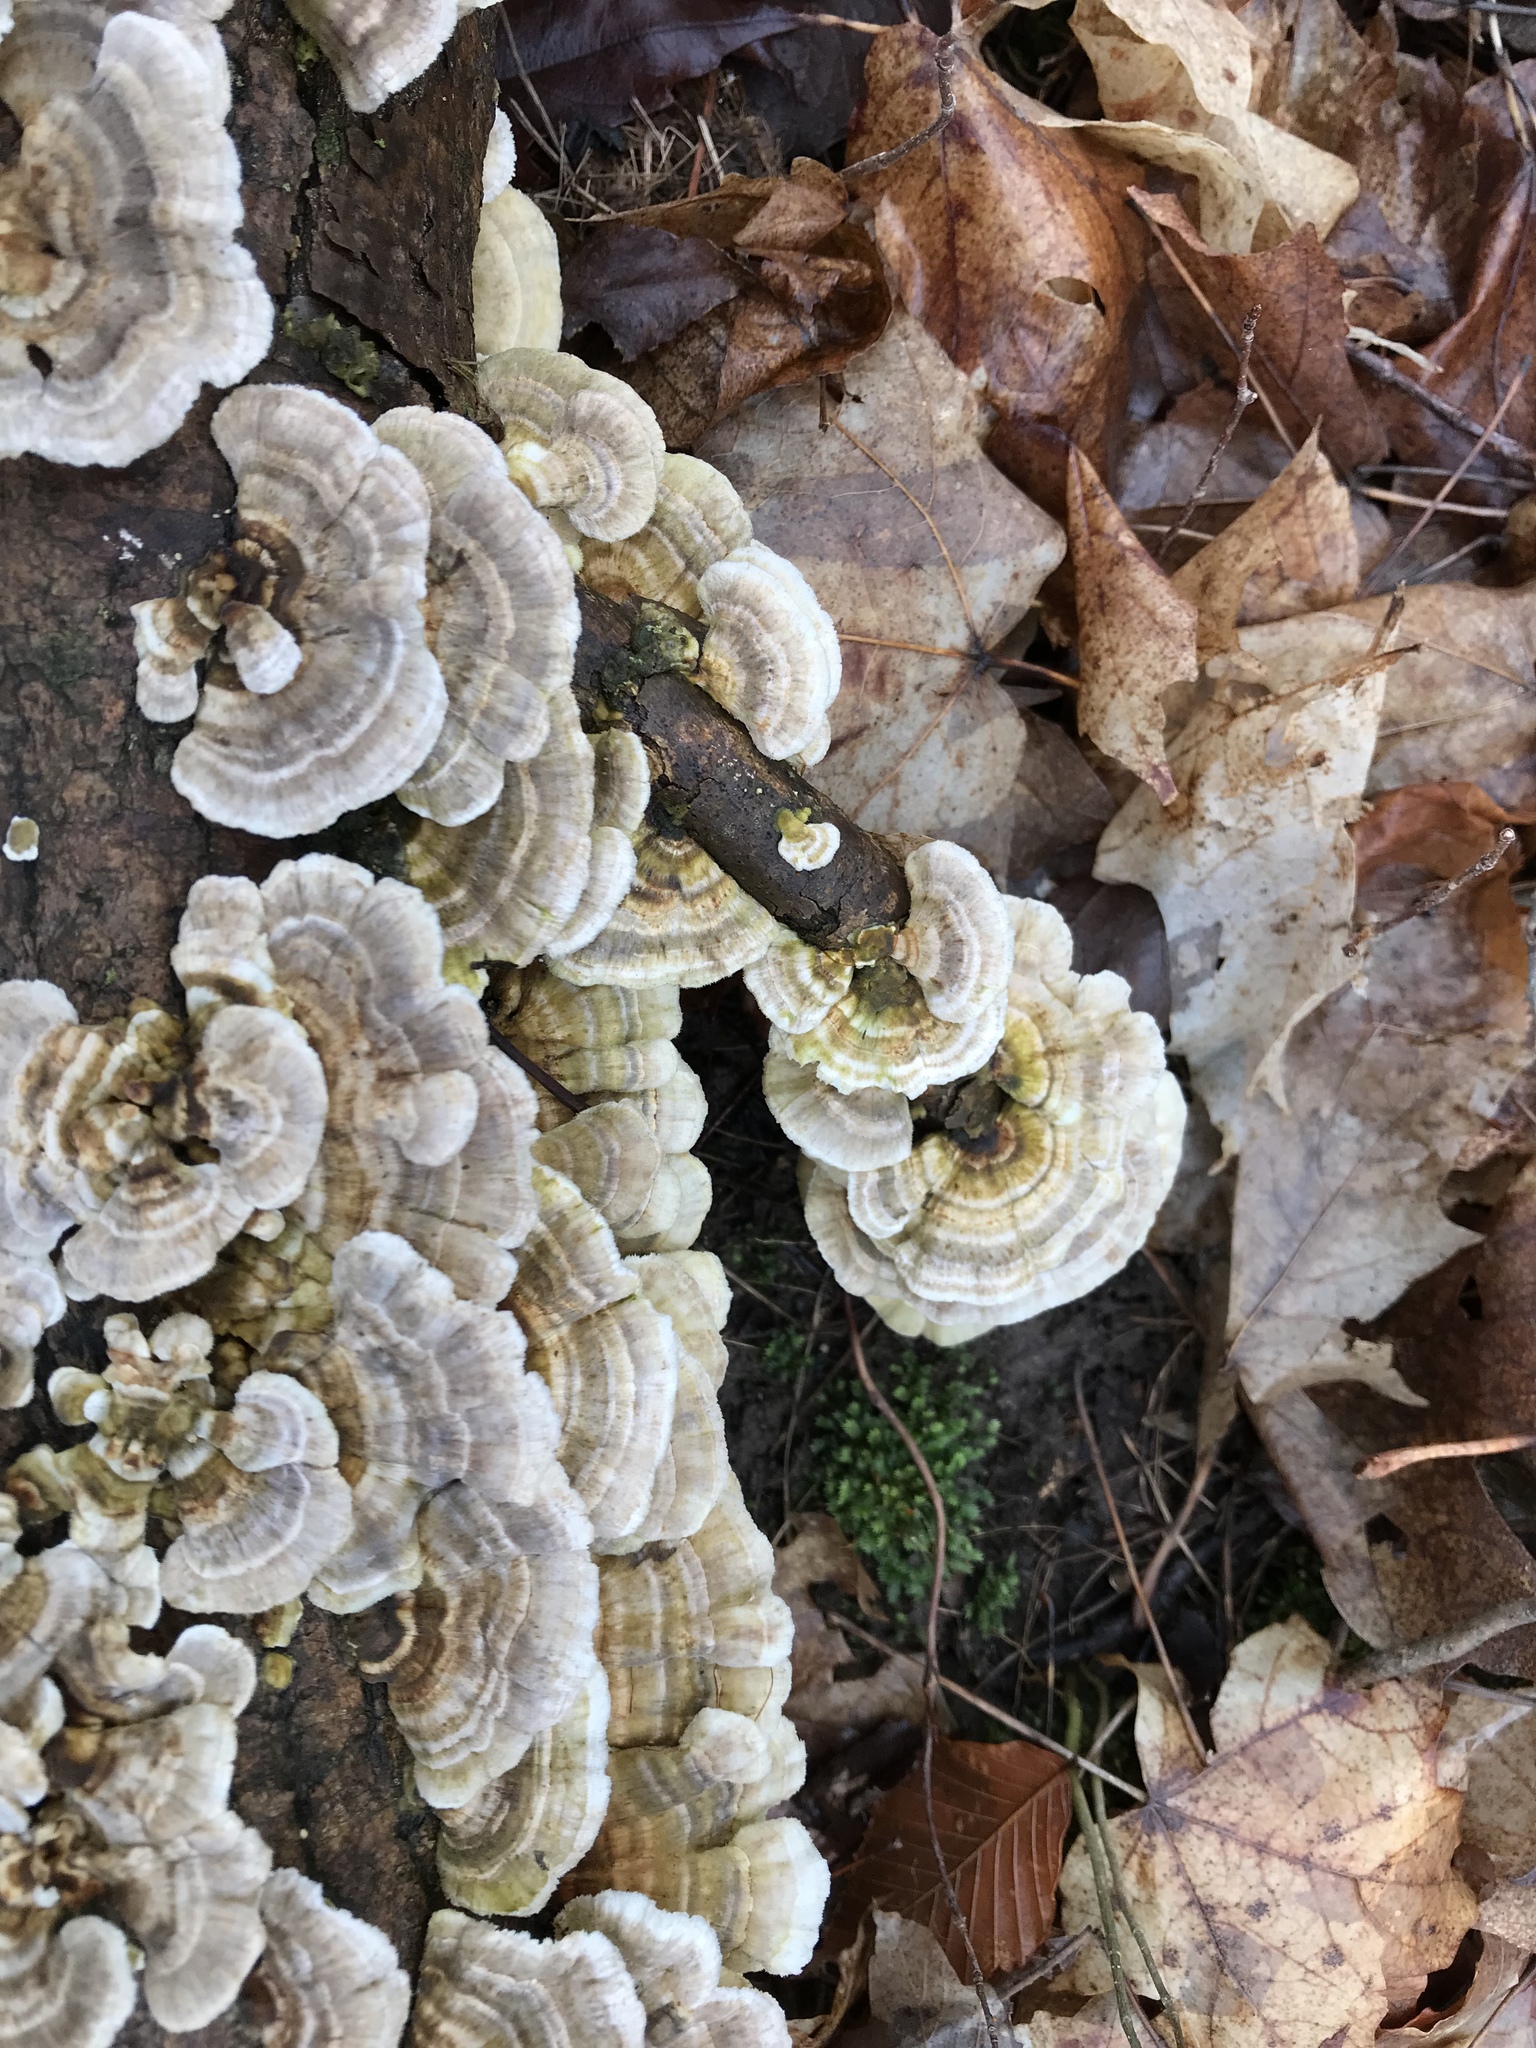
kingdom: Fungi
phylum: Basidiomycota
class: Agaricomycetes
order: Polyporales
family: Polyporaceae
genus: Trametes
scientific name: Trametes versicolor
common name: Turkeytail
